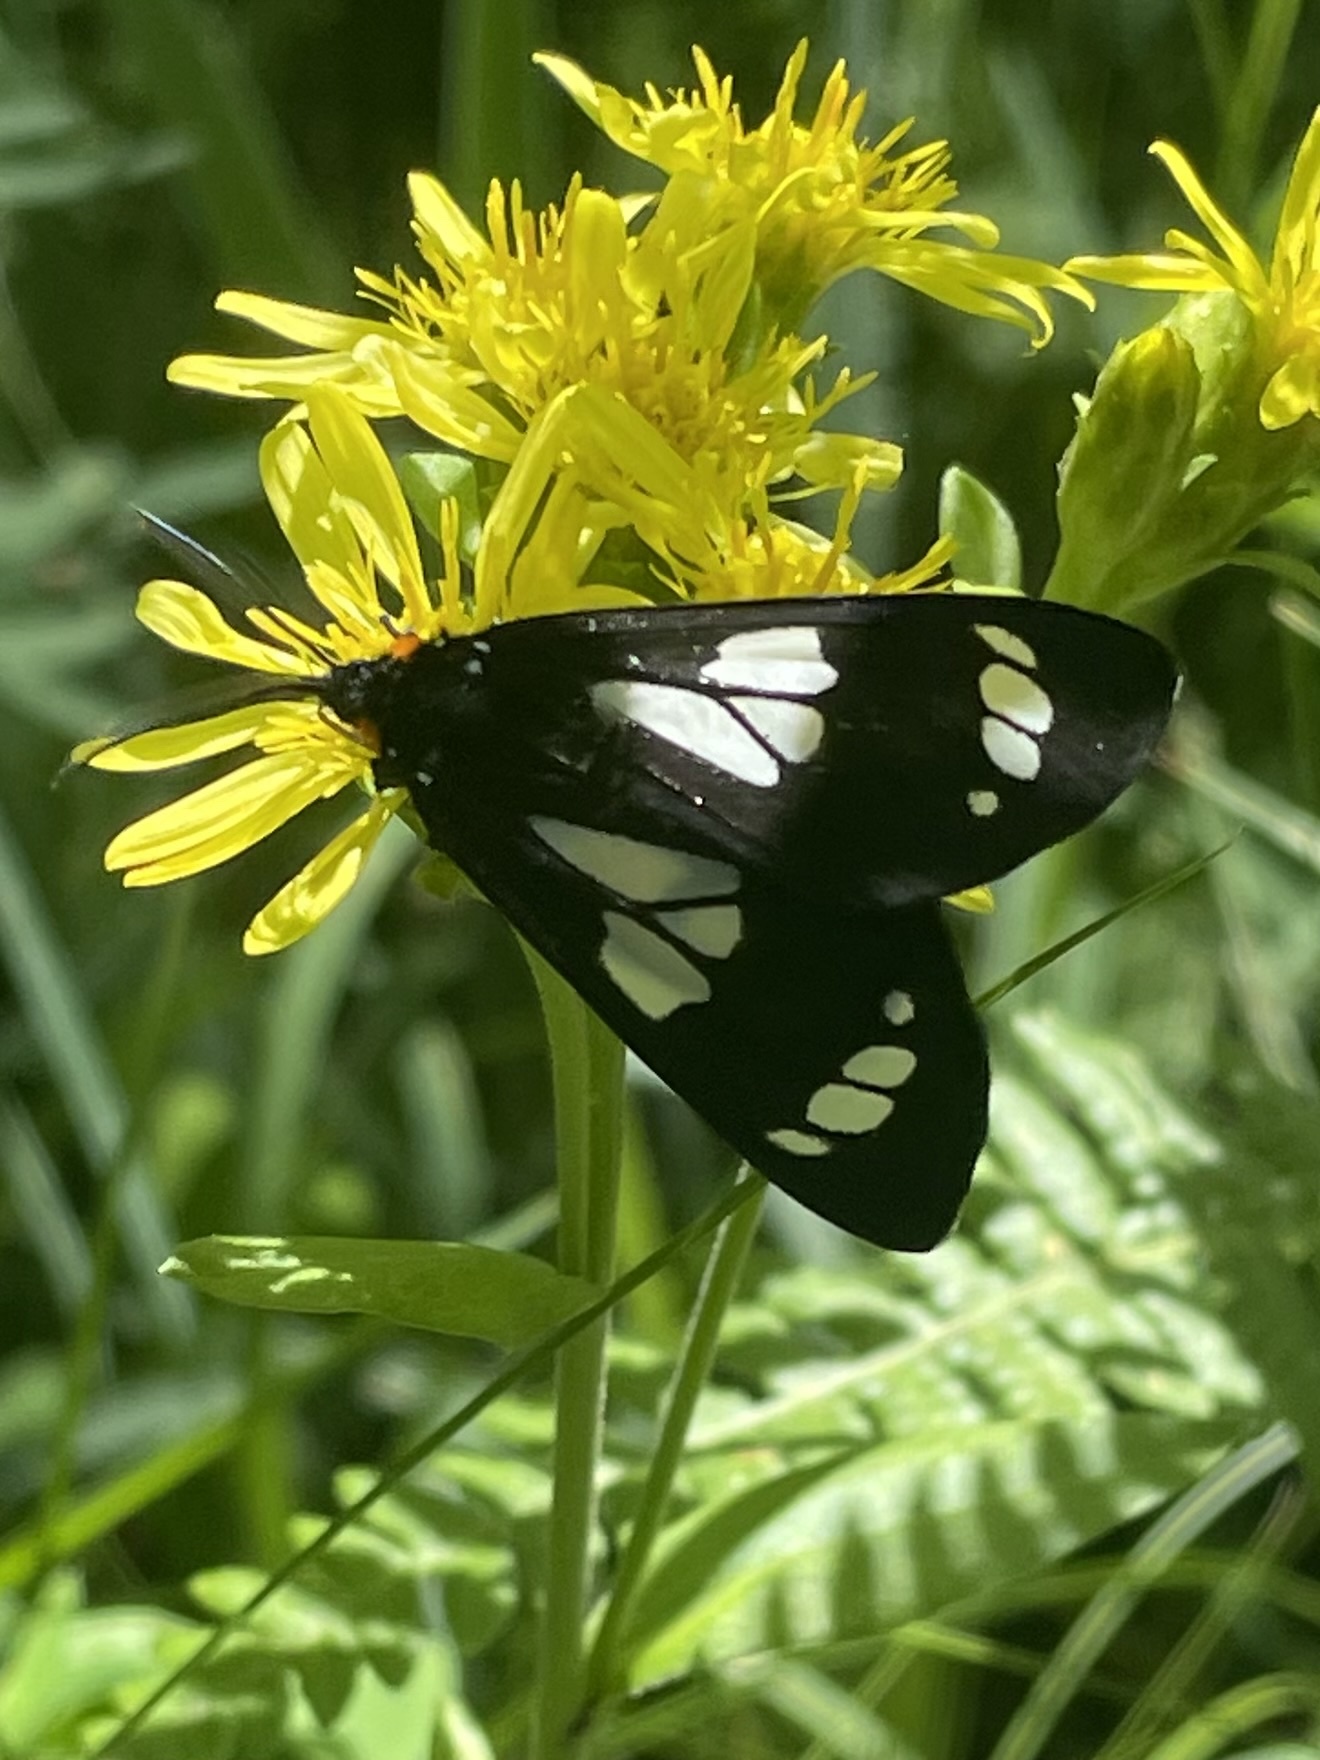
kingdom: Animalia
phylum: Arthropoda
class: Insecta
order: Lepidoptera
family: Erebidae
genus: Gnophaela
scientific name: Gnophaela discreta
